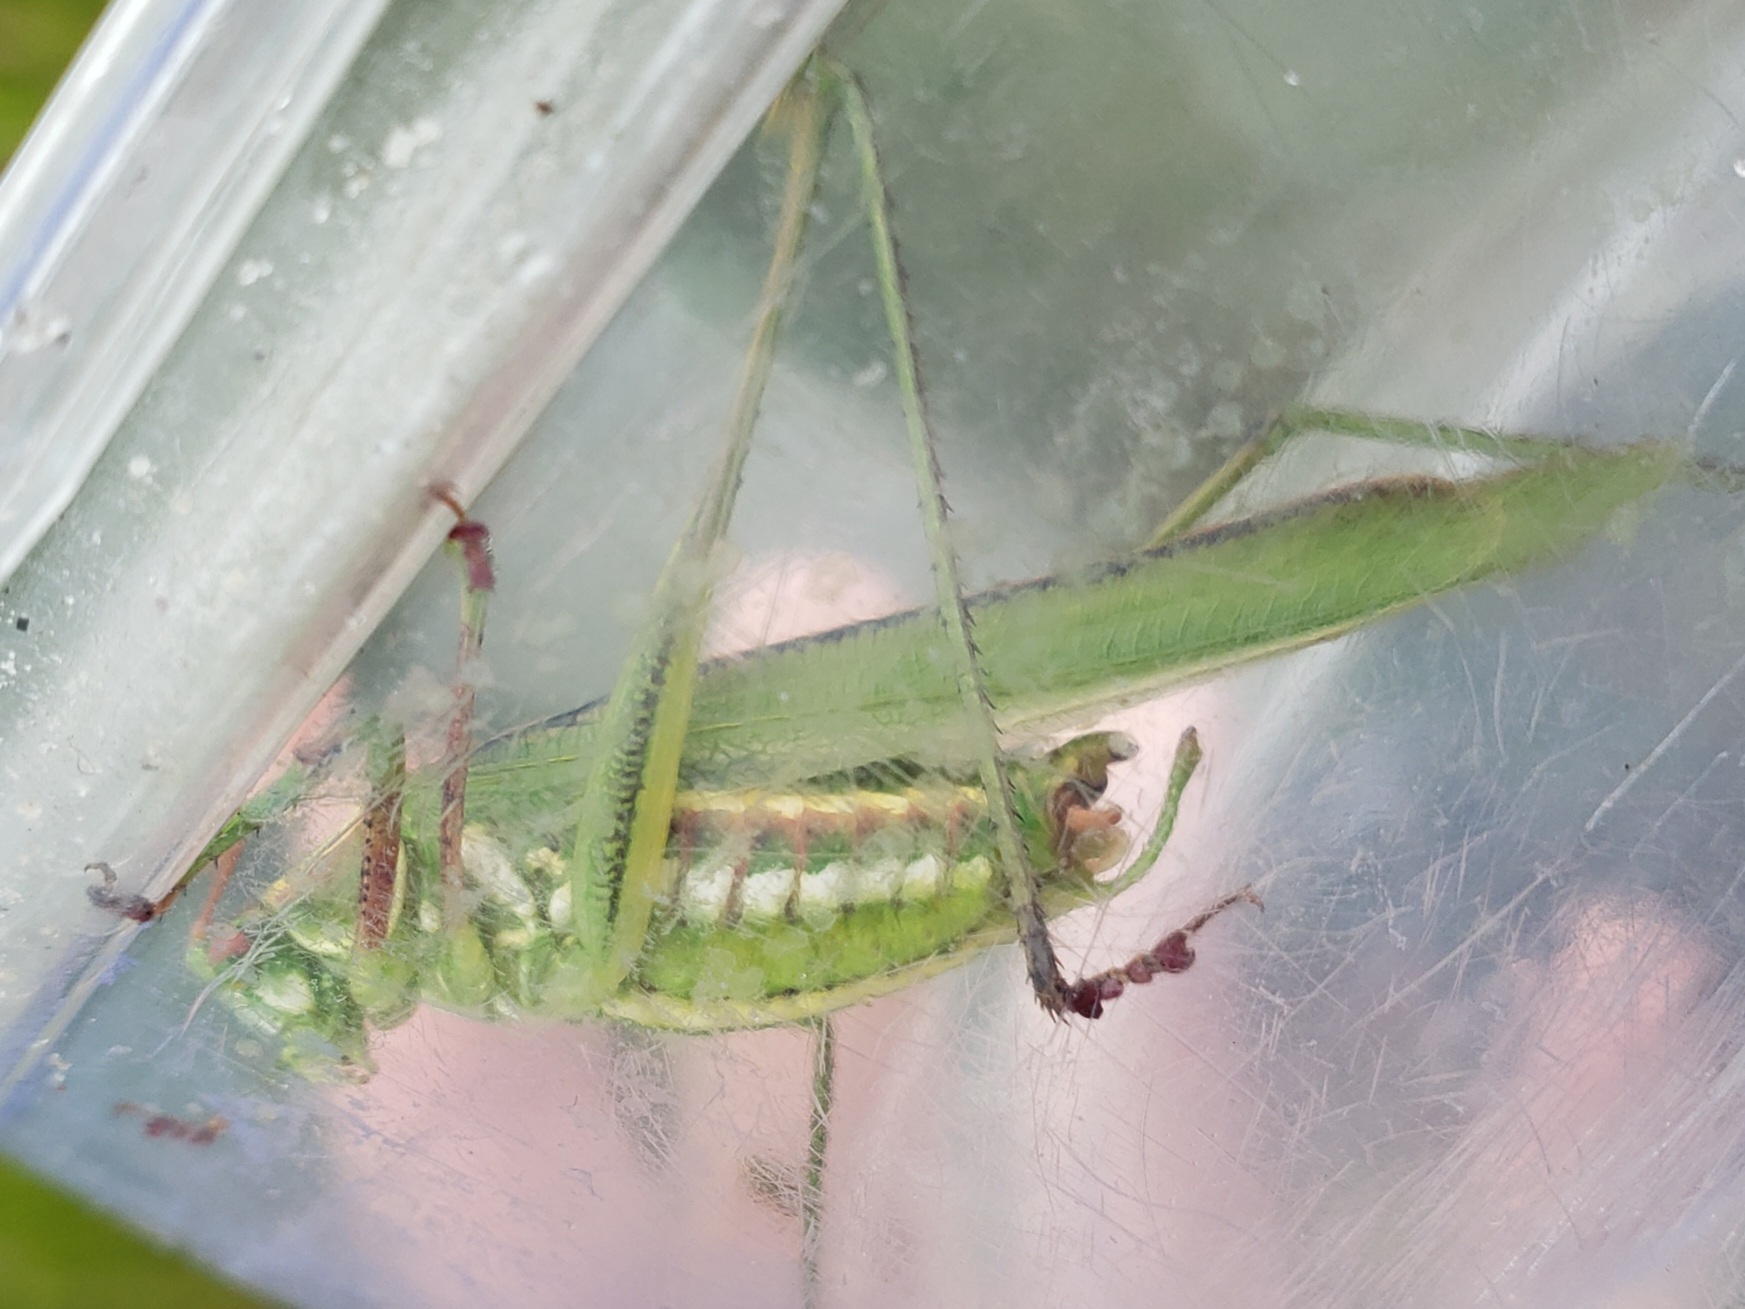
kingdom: Animalia
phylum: Arthropoda
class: Insecta
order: Orthoptera
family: Tettigoniidae
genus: Inscudderia
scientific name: Inscudderia strigata
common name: Guinea-cypress katydid
